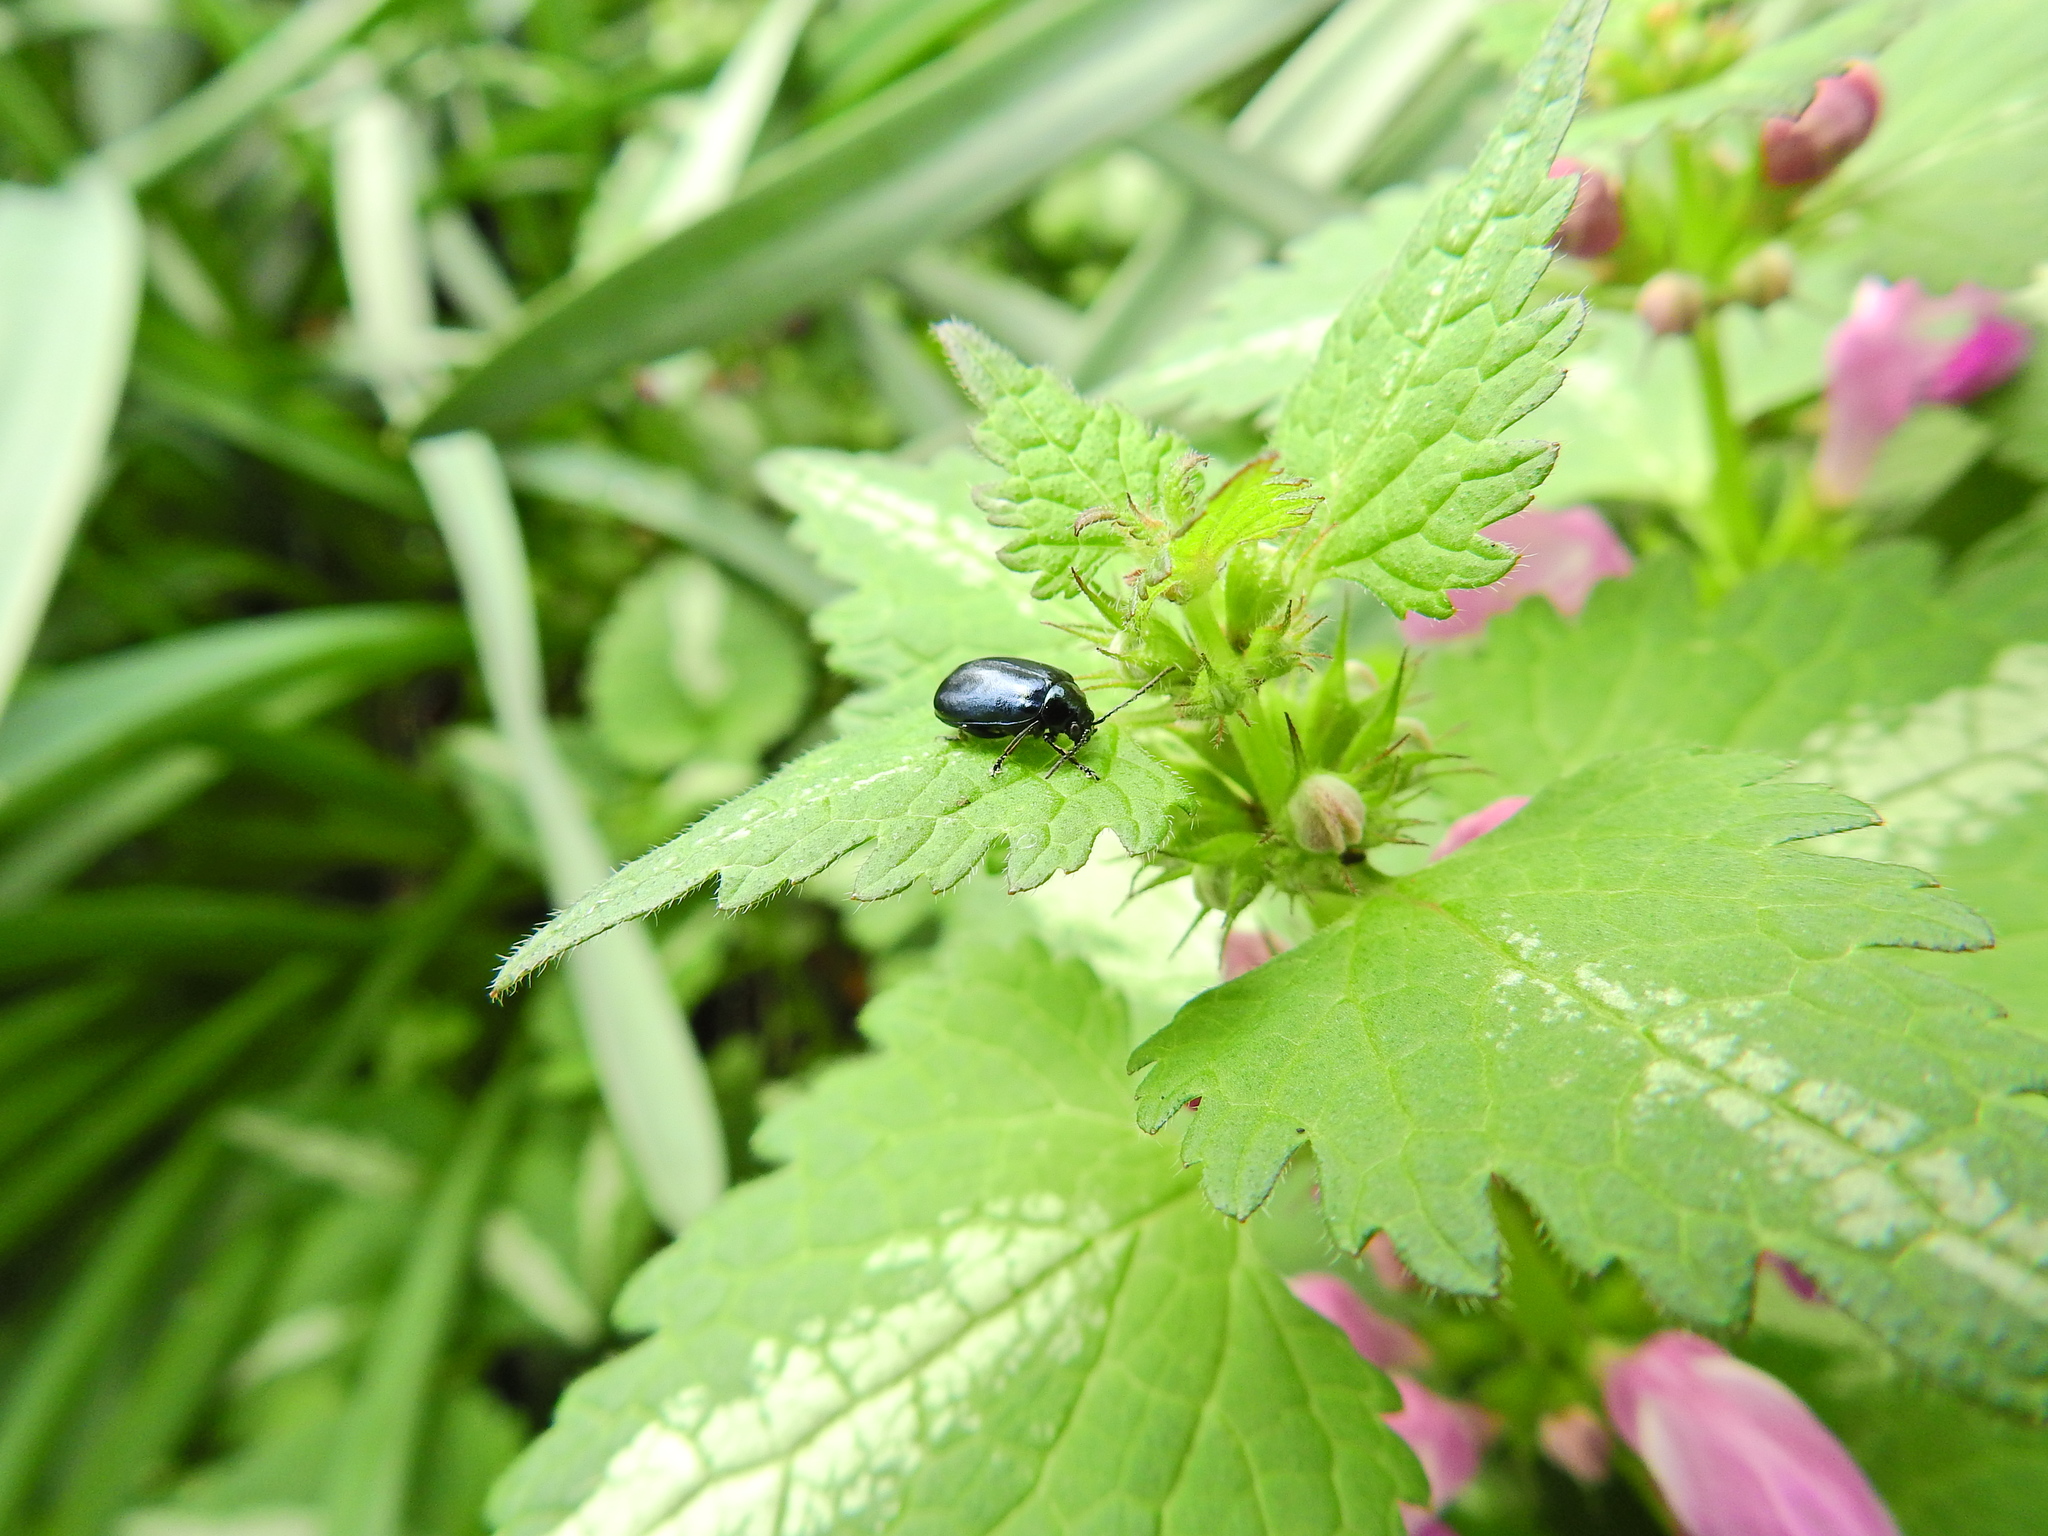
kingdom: Animalia
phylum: Arthropoda
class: Insecta
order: Coleoptera
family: Chrysomelidae
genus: Agelastica
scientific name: Agelastica alni
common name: Alder leaf beetle
